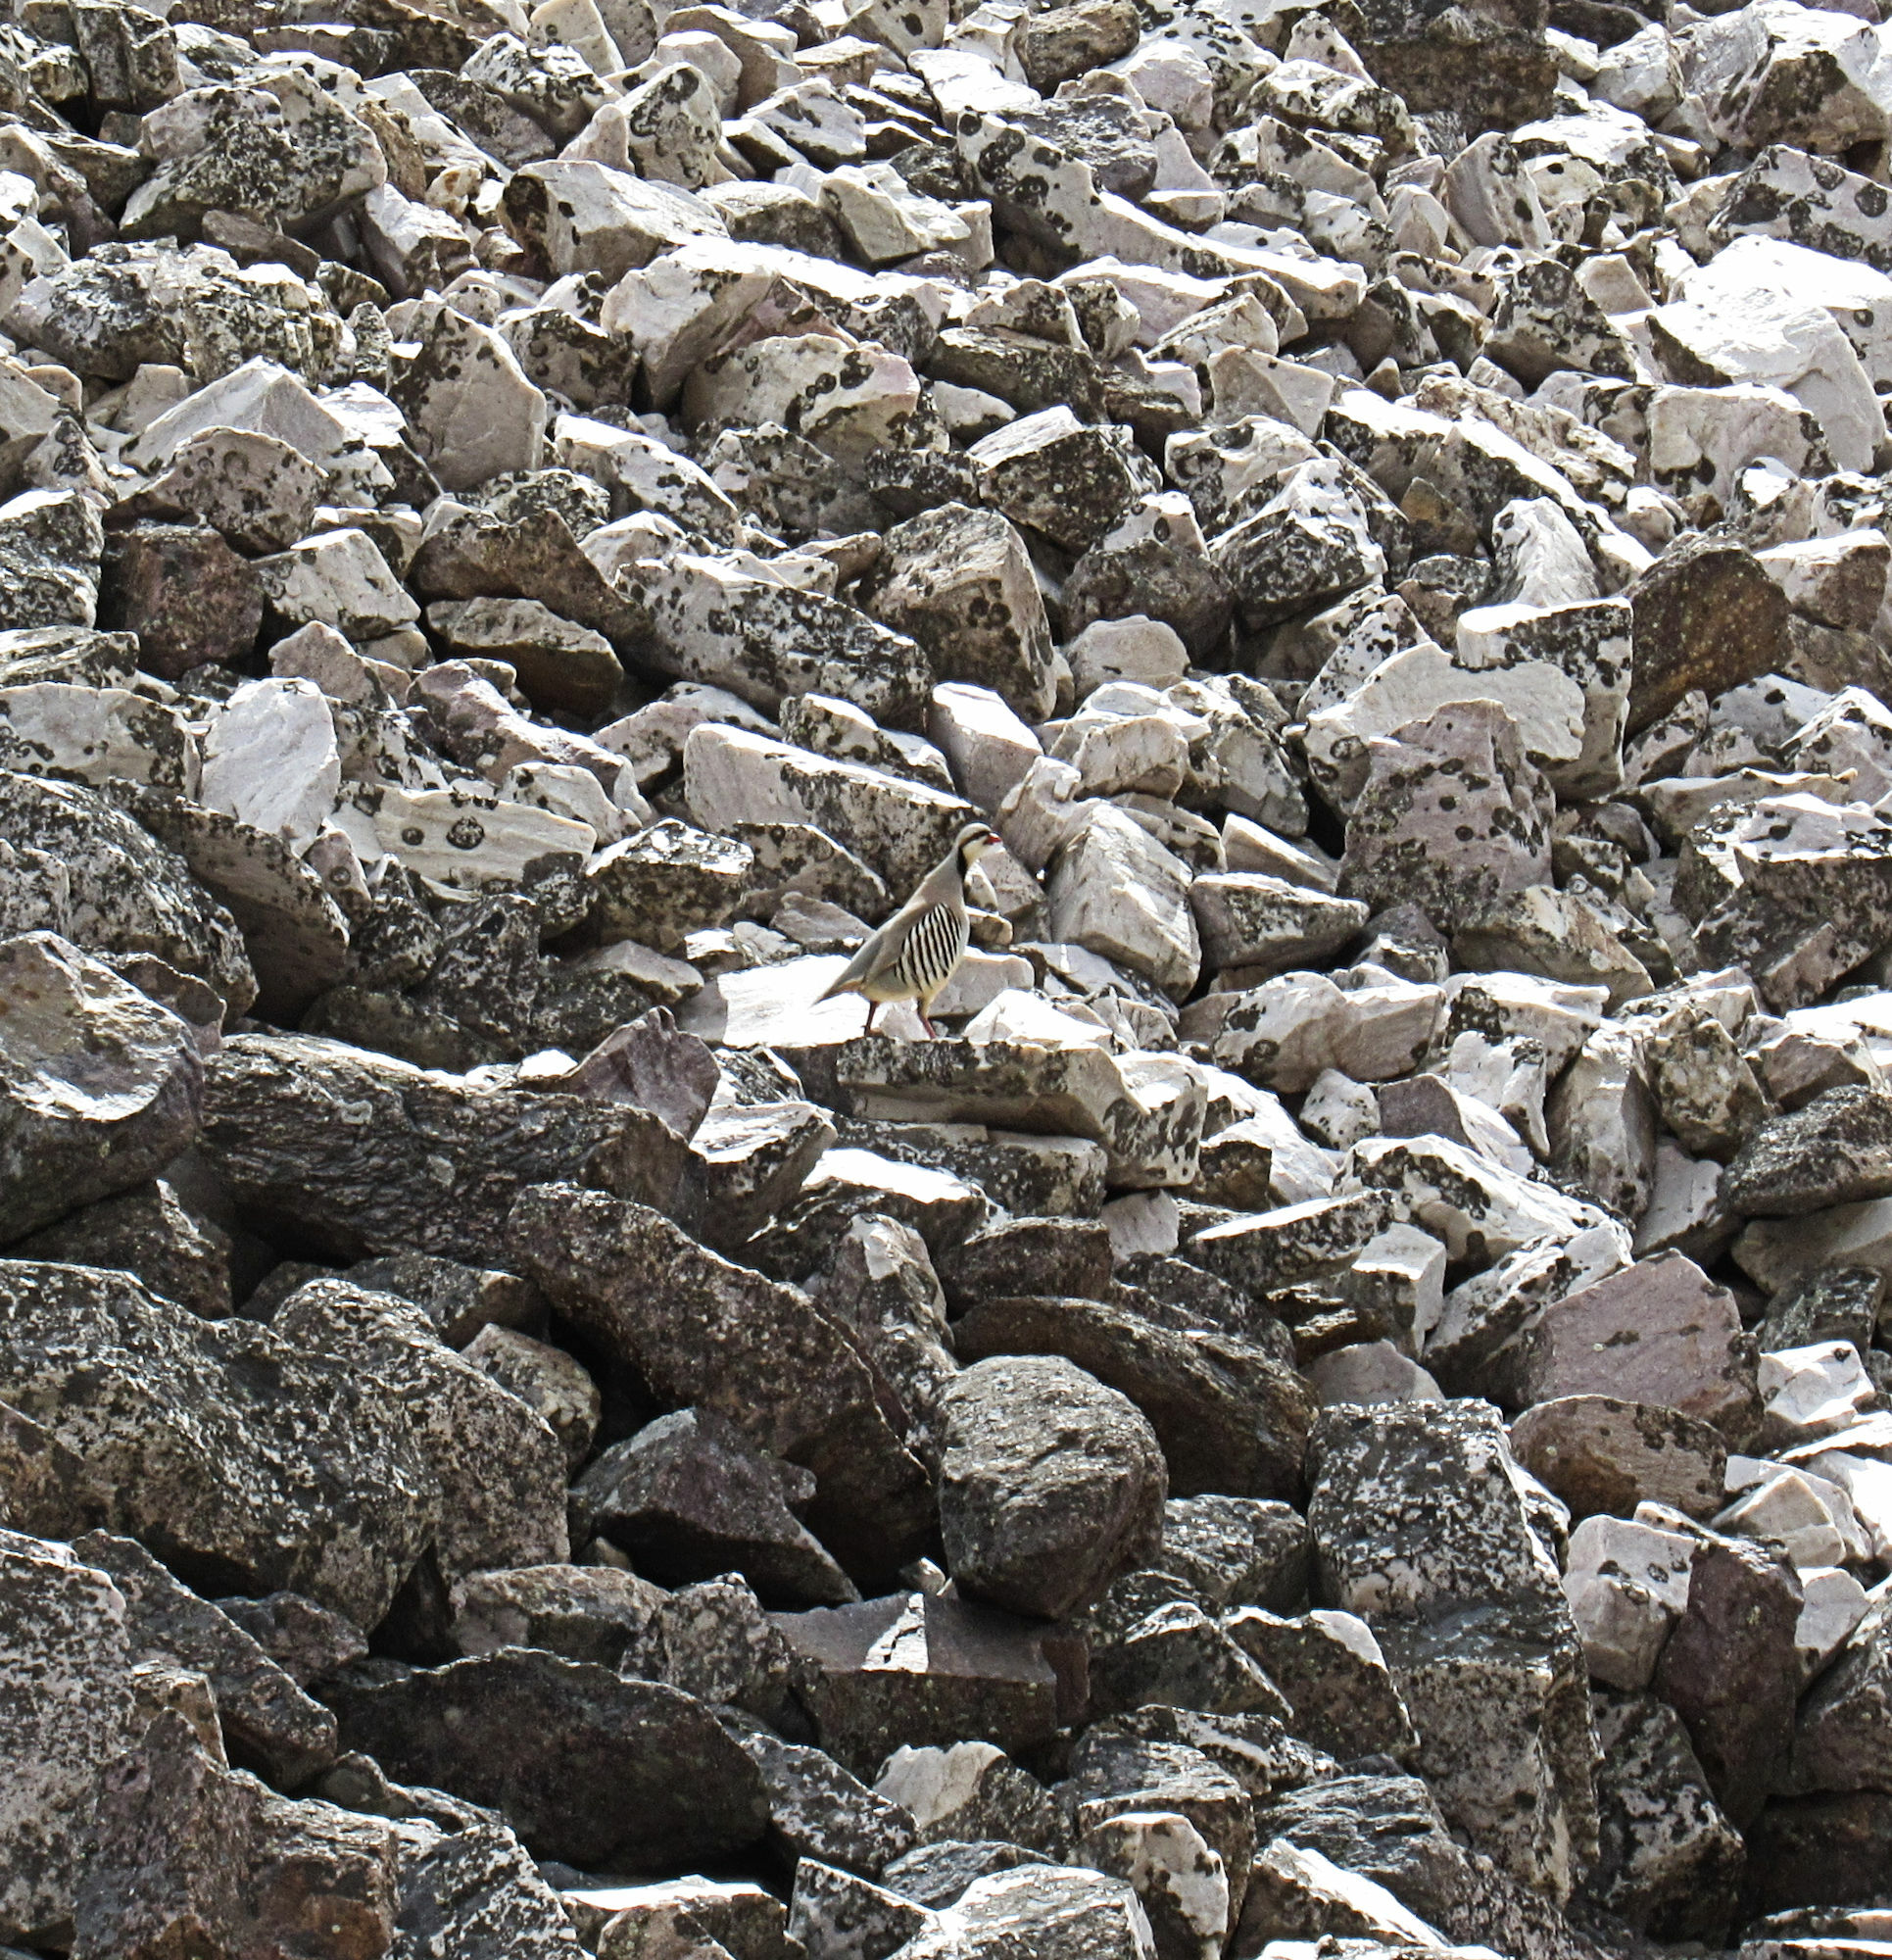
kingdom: Animalia
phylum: Chordata
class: Aves
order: Galliformes
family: Phasianidae
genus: Alectoris
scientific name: Alectoris chukar
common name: Chukar
